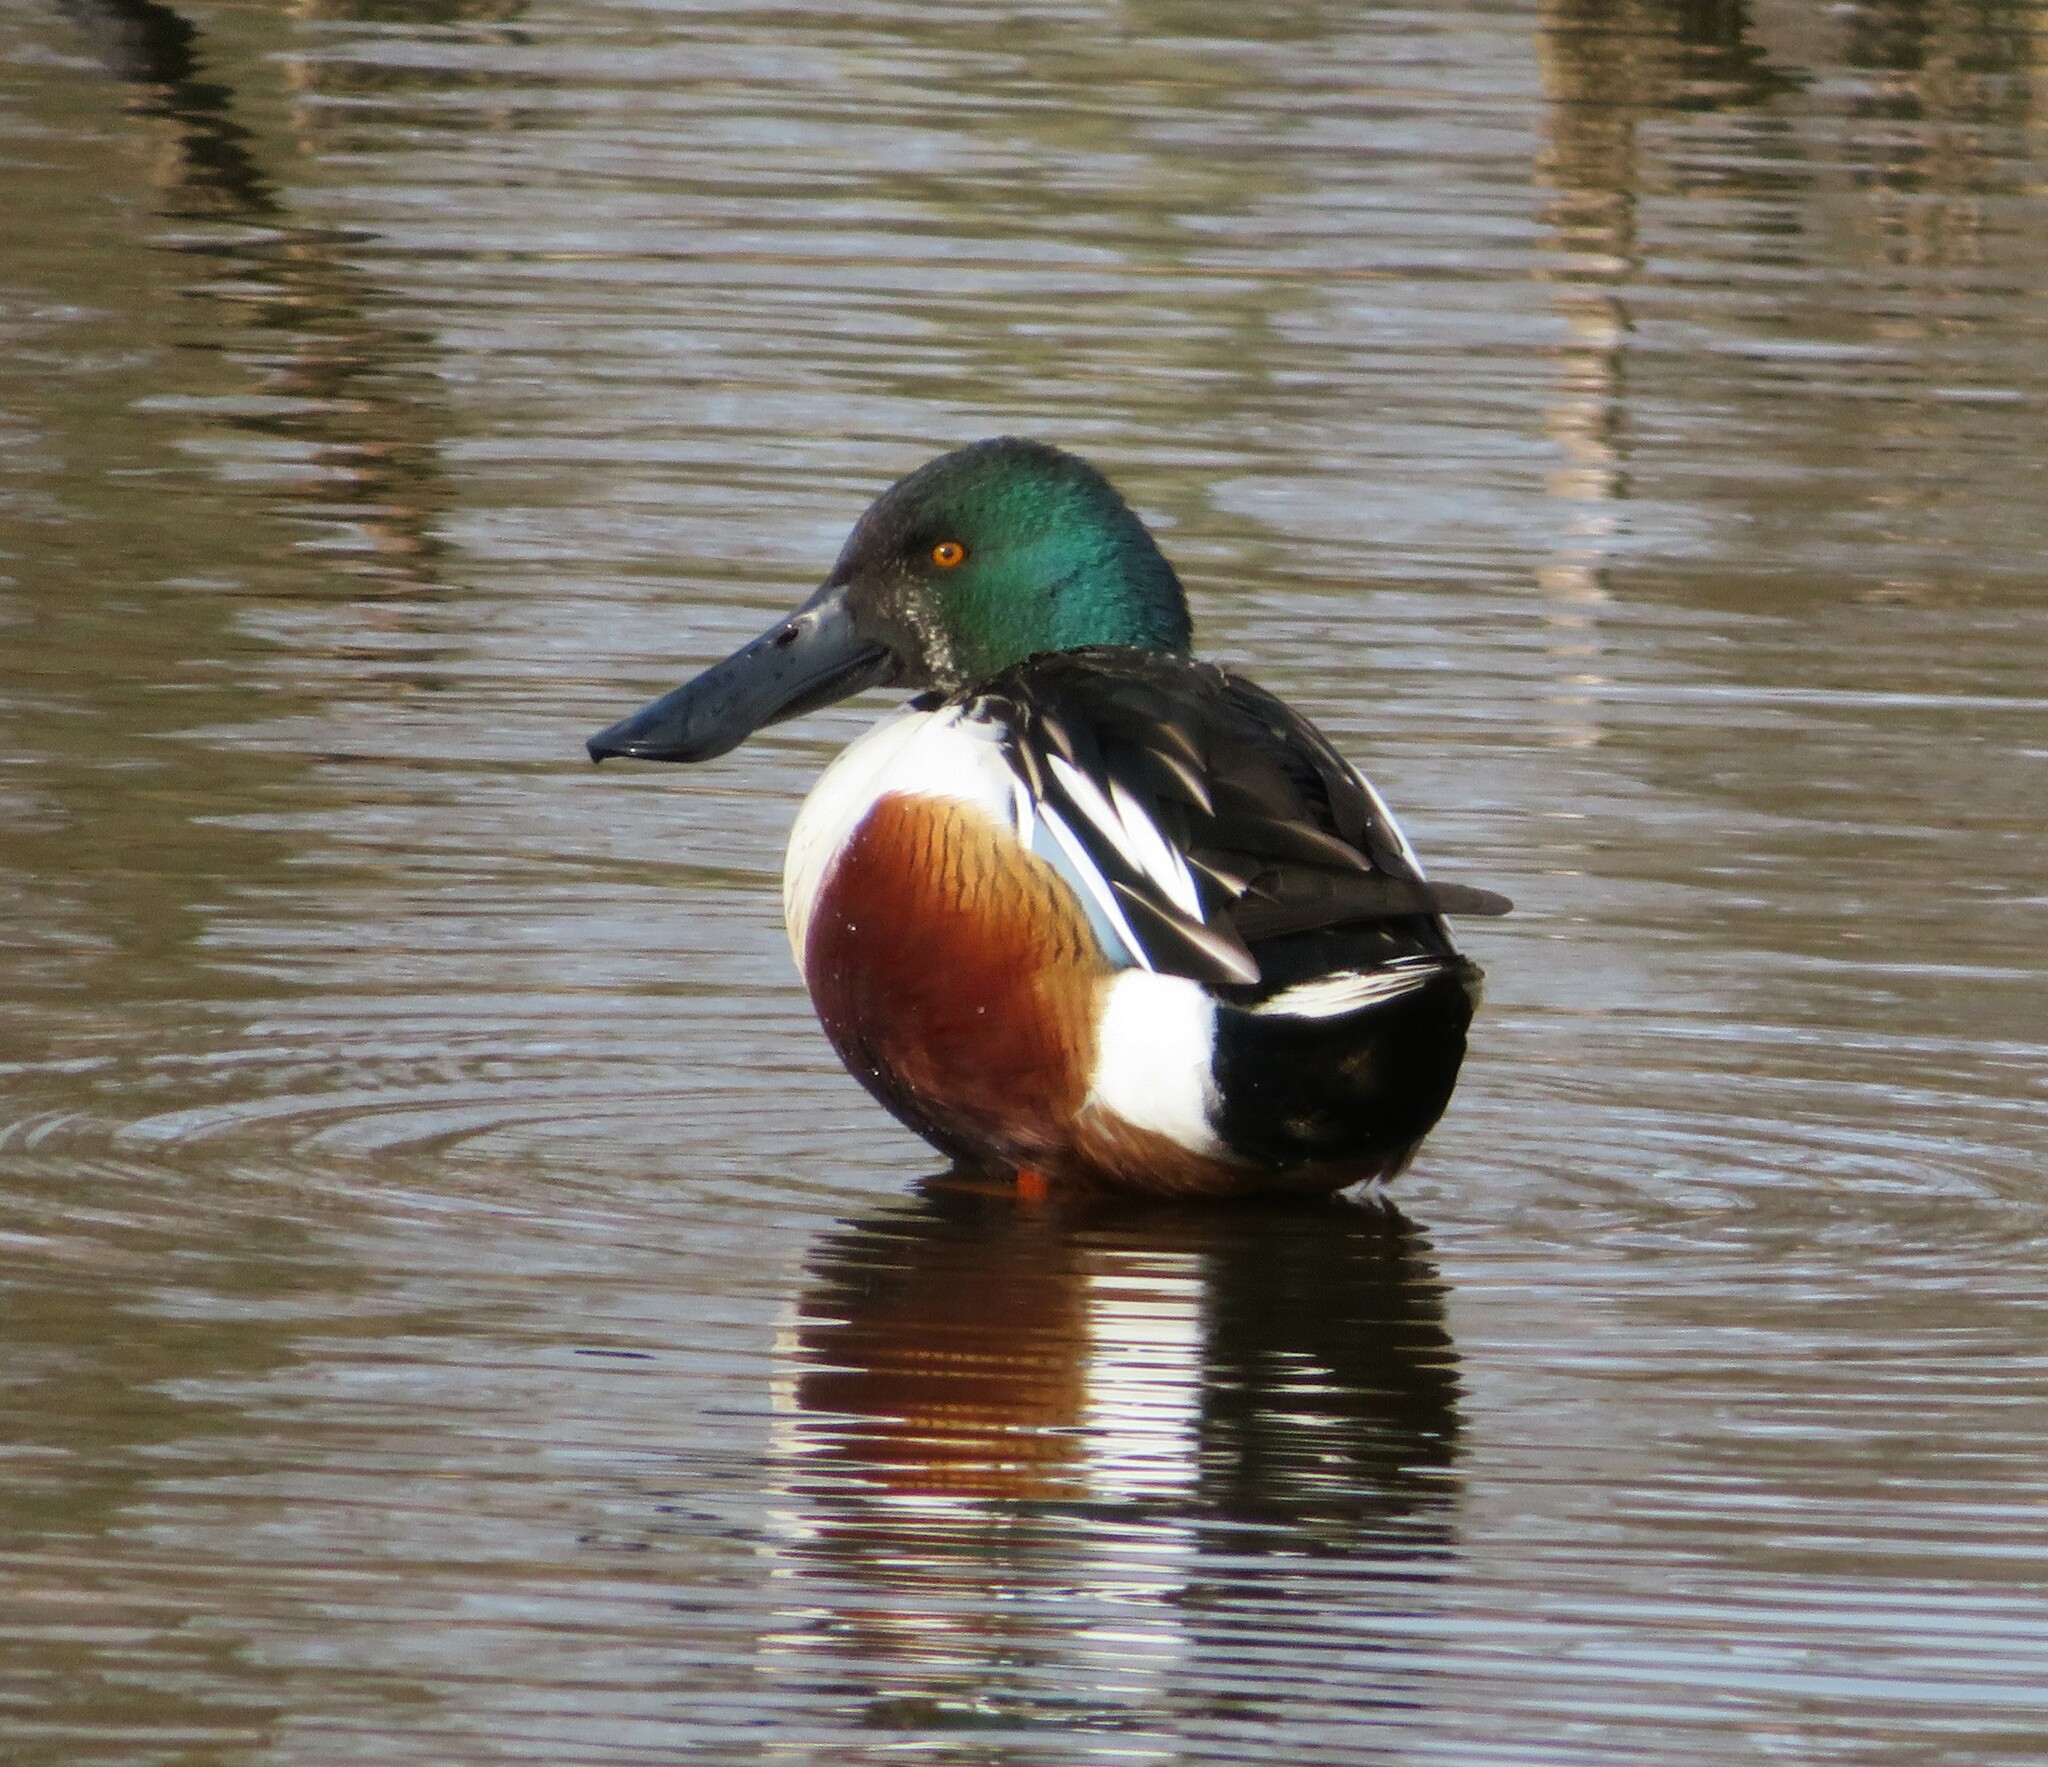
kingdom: Animalia
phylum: Chordata
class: Aves
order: Anseriformes
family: Anatidae
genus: Spatula
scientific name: Spatula clypeata
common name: Northern shoveler
